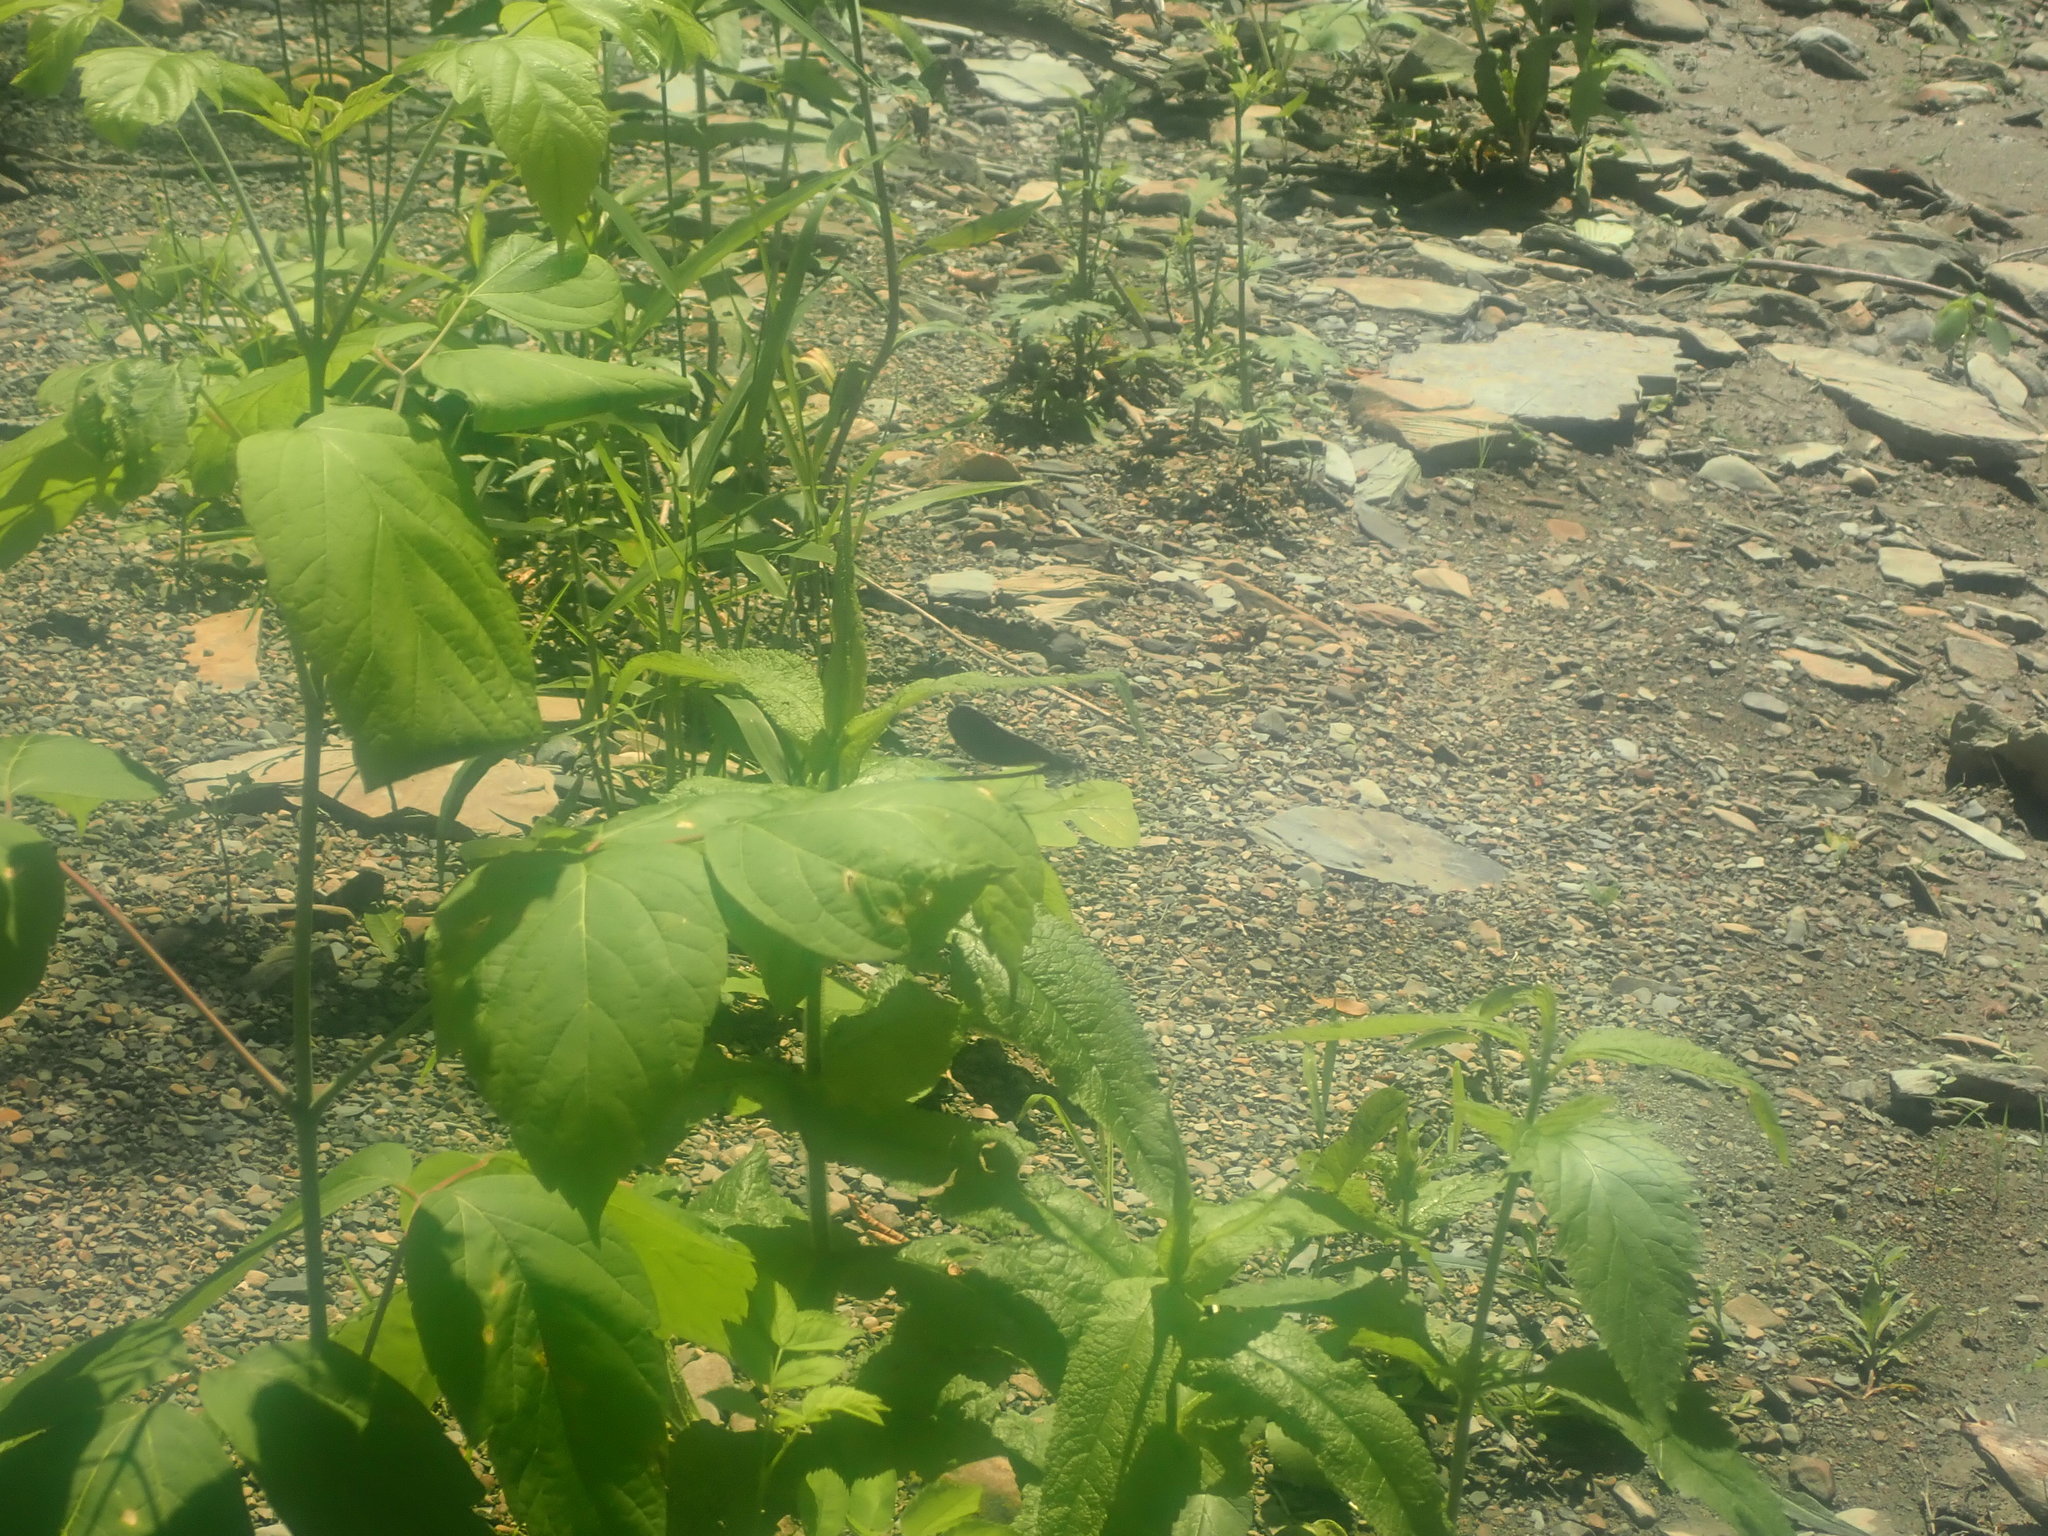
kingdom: Animalia
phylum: Arthropoda
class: Insecta
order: Odonata
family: Calopterygidae
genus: Calopteryx
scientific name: Calopteryx maculata
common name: Ebony jewelwing
